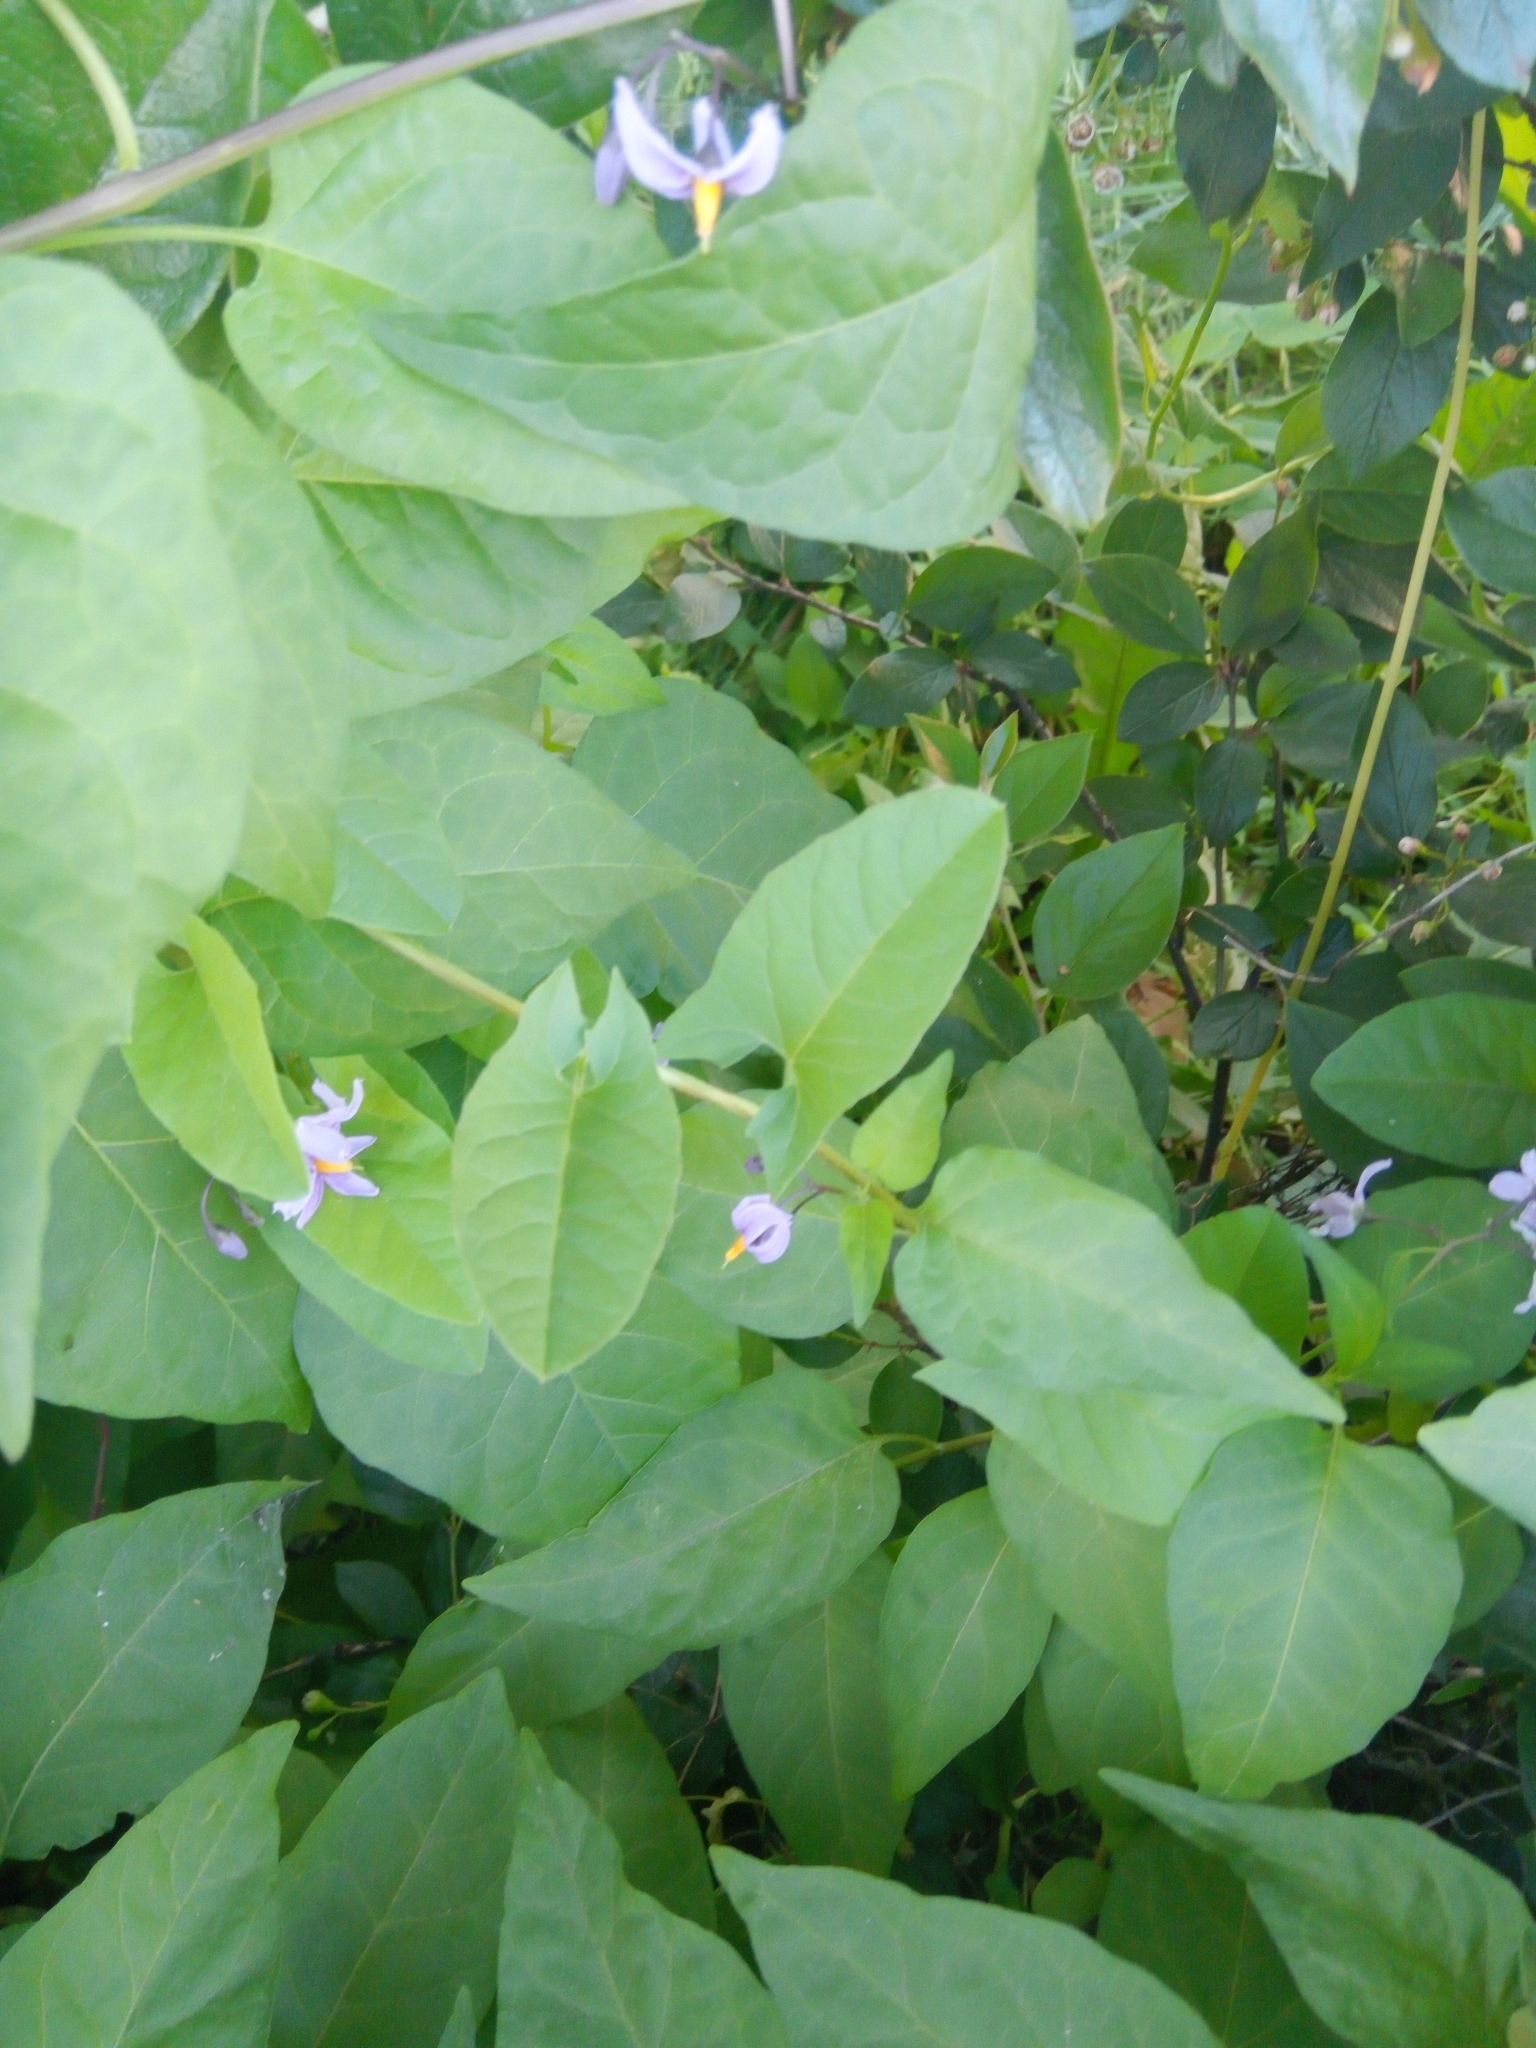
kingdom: Plantae
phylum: Tracheophyta
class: Magnoliopsida
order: Solanales
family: Solanaceae
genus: Solanum
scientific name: Solanum dulcamara
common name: Climbing nightshade
